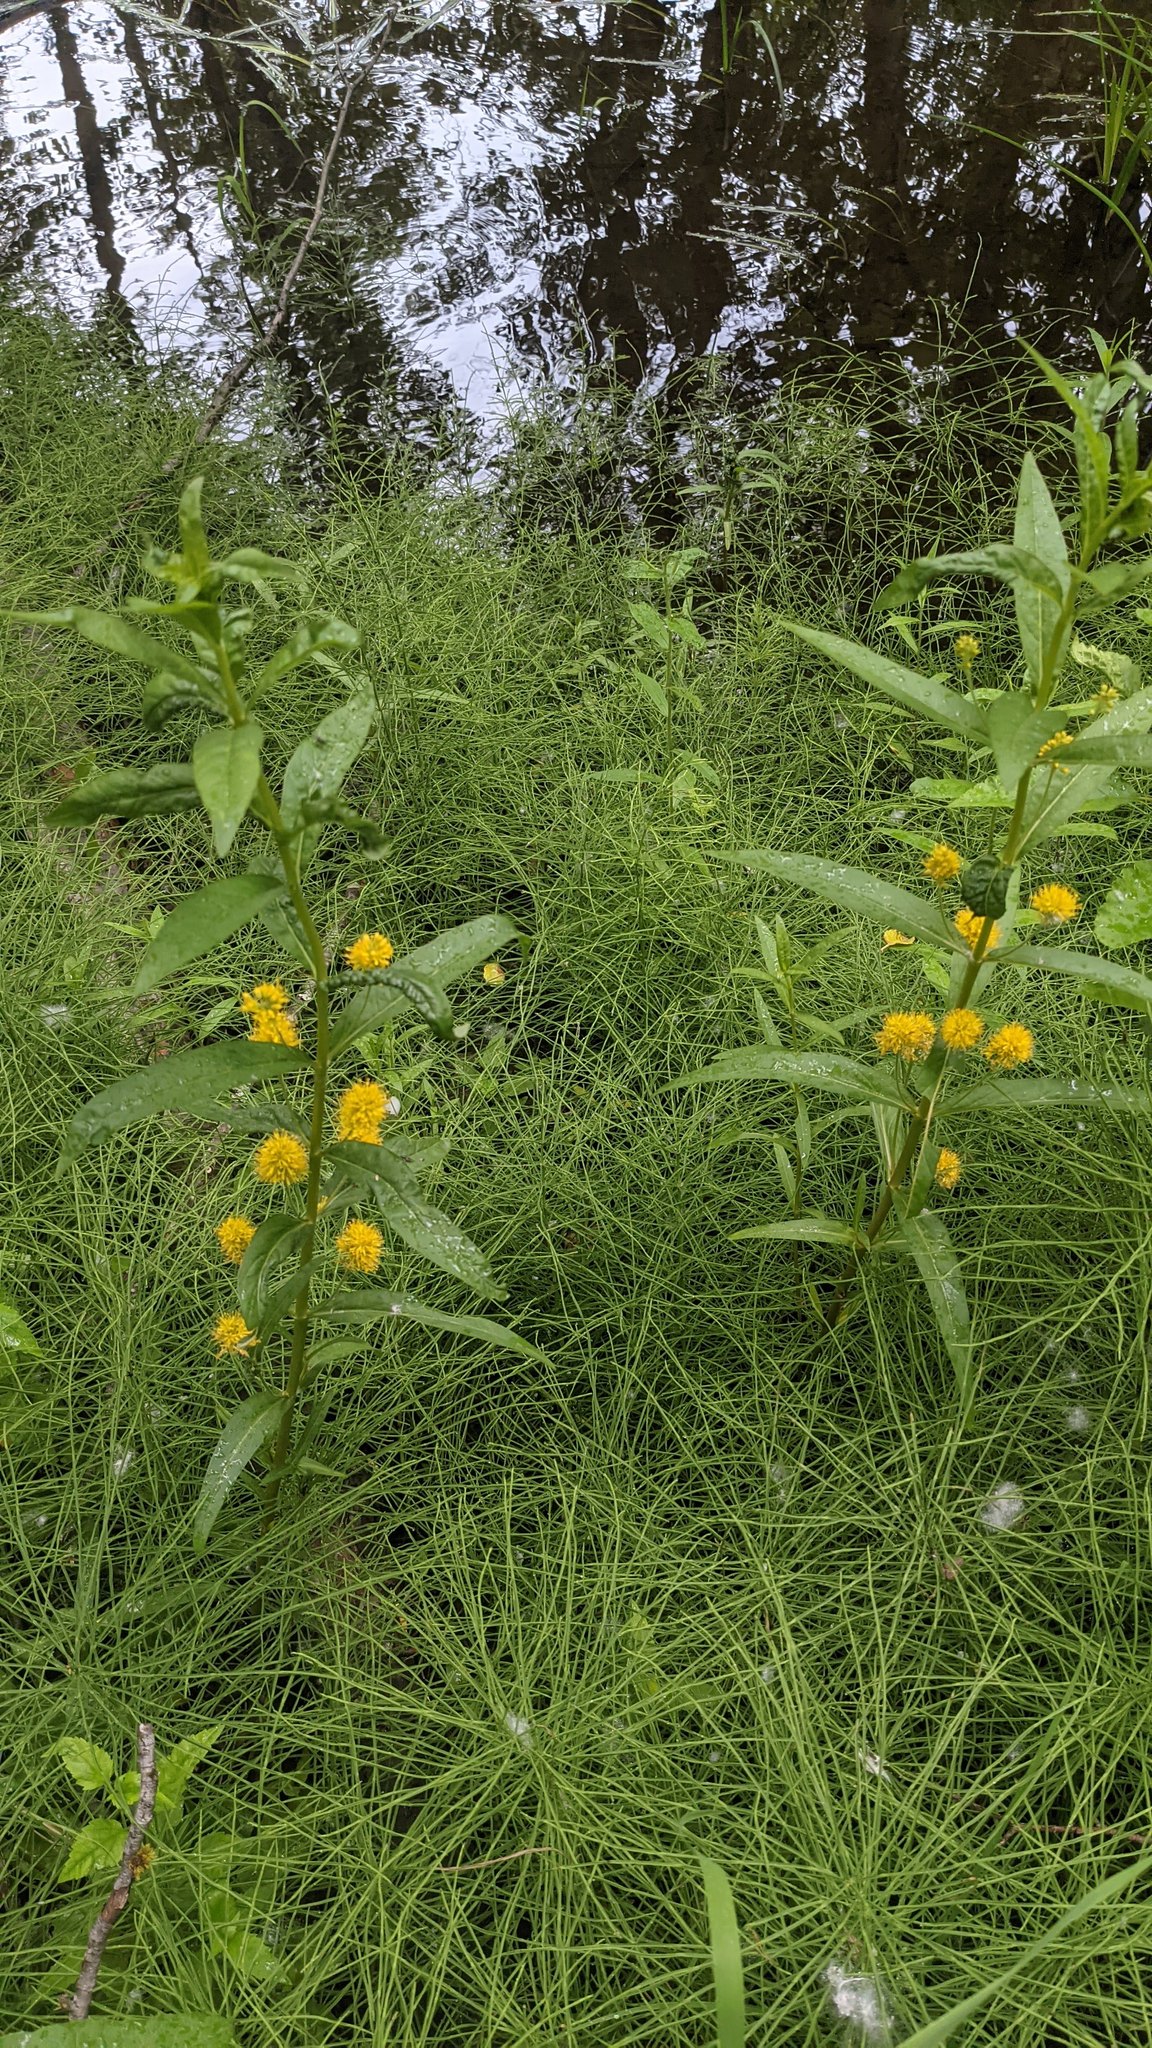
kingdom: Plantae
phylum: Tracheophyta
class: Magnoliopsida
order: Ericales
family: Primulaceae
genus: Lysimachia
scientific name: Lysimachia thyrsiflora
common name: Tufted loosestrife
